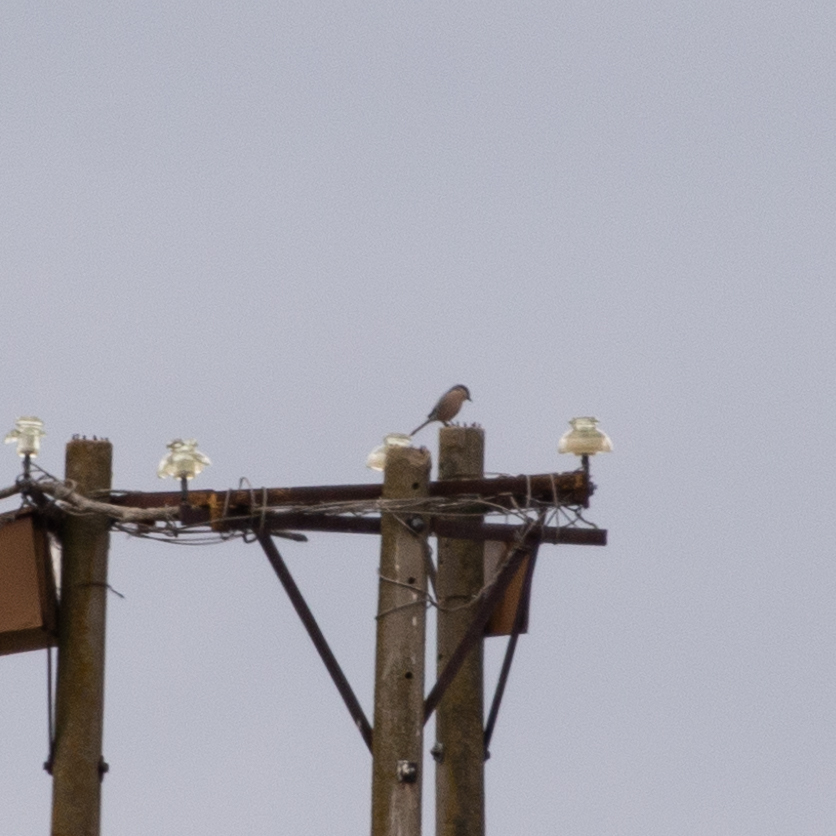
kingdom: Animalia
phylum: Chordata
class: Aves
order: Passeriformes
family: Laniidae
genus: Lanius
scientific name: Lanius meridionalis
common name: Iberian grey shrike
